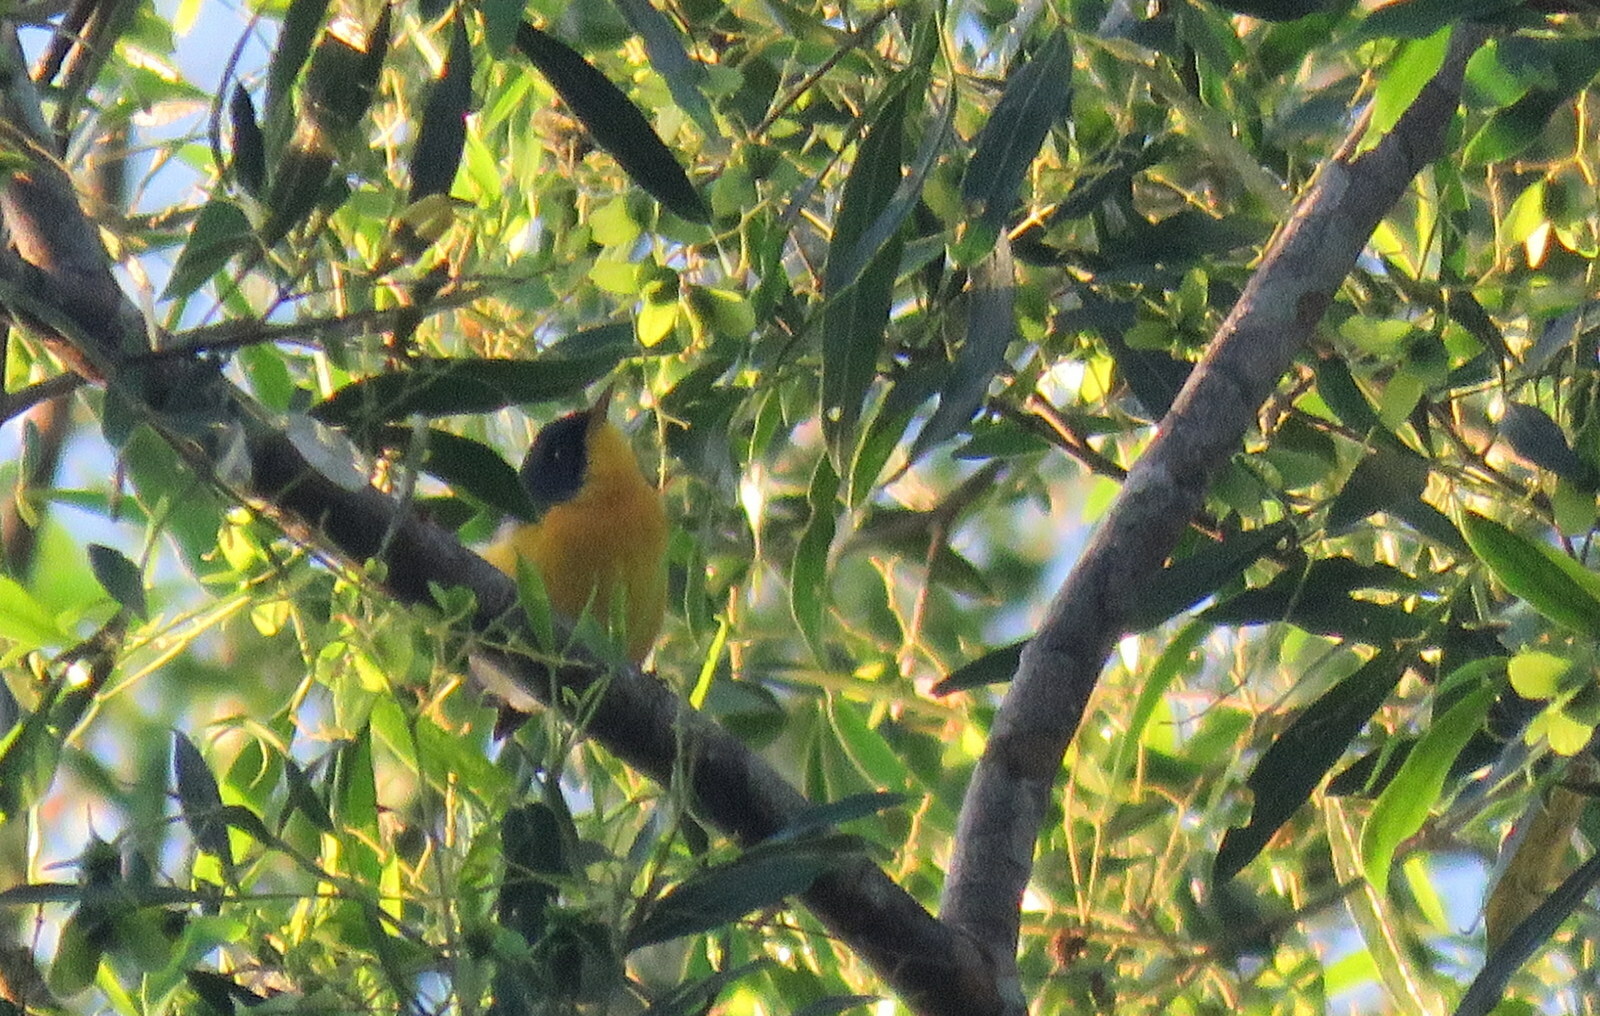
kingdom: Animalia
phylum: Chordata
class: Aves
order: Passeriformes
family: Parulidae
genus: Setophaga
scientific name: Setophaga pitiayumi
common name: Tropical parula
